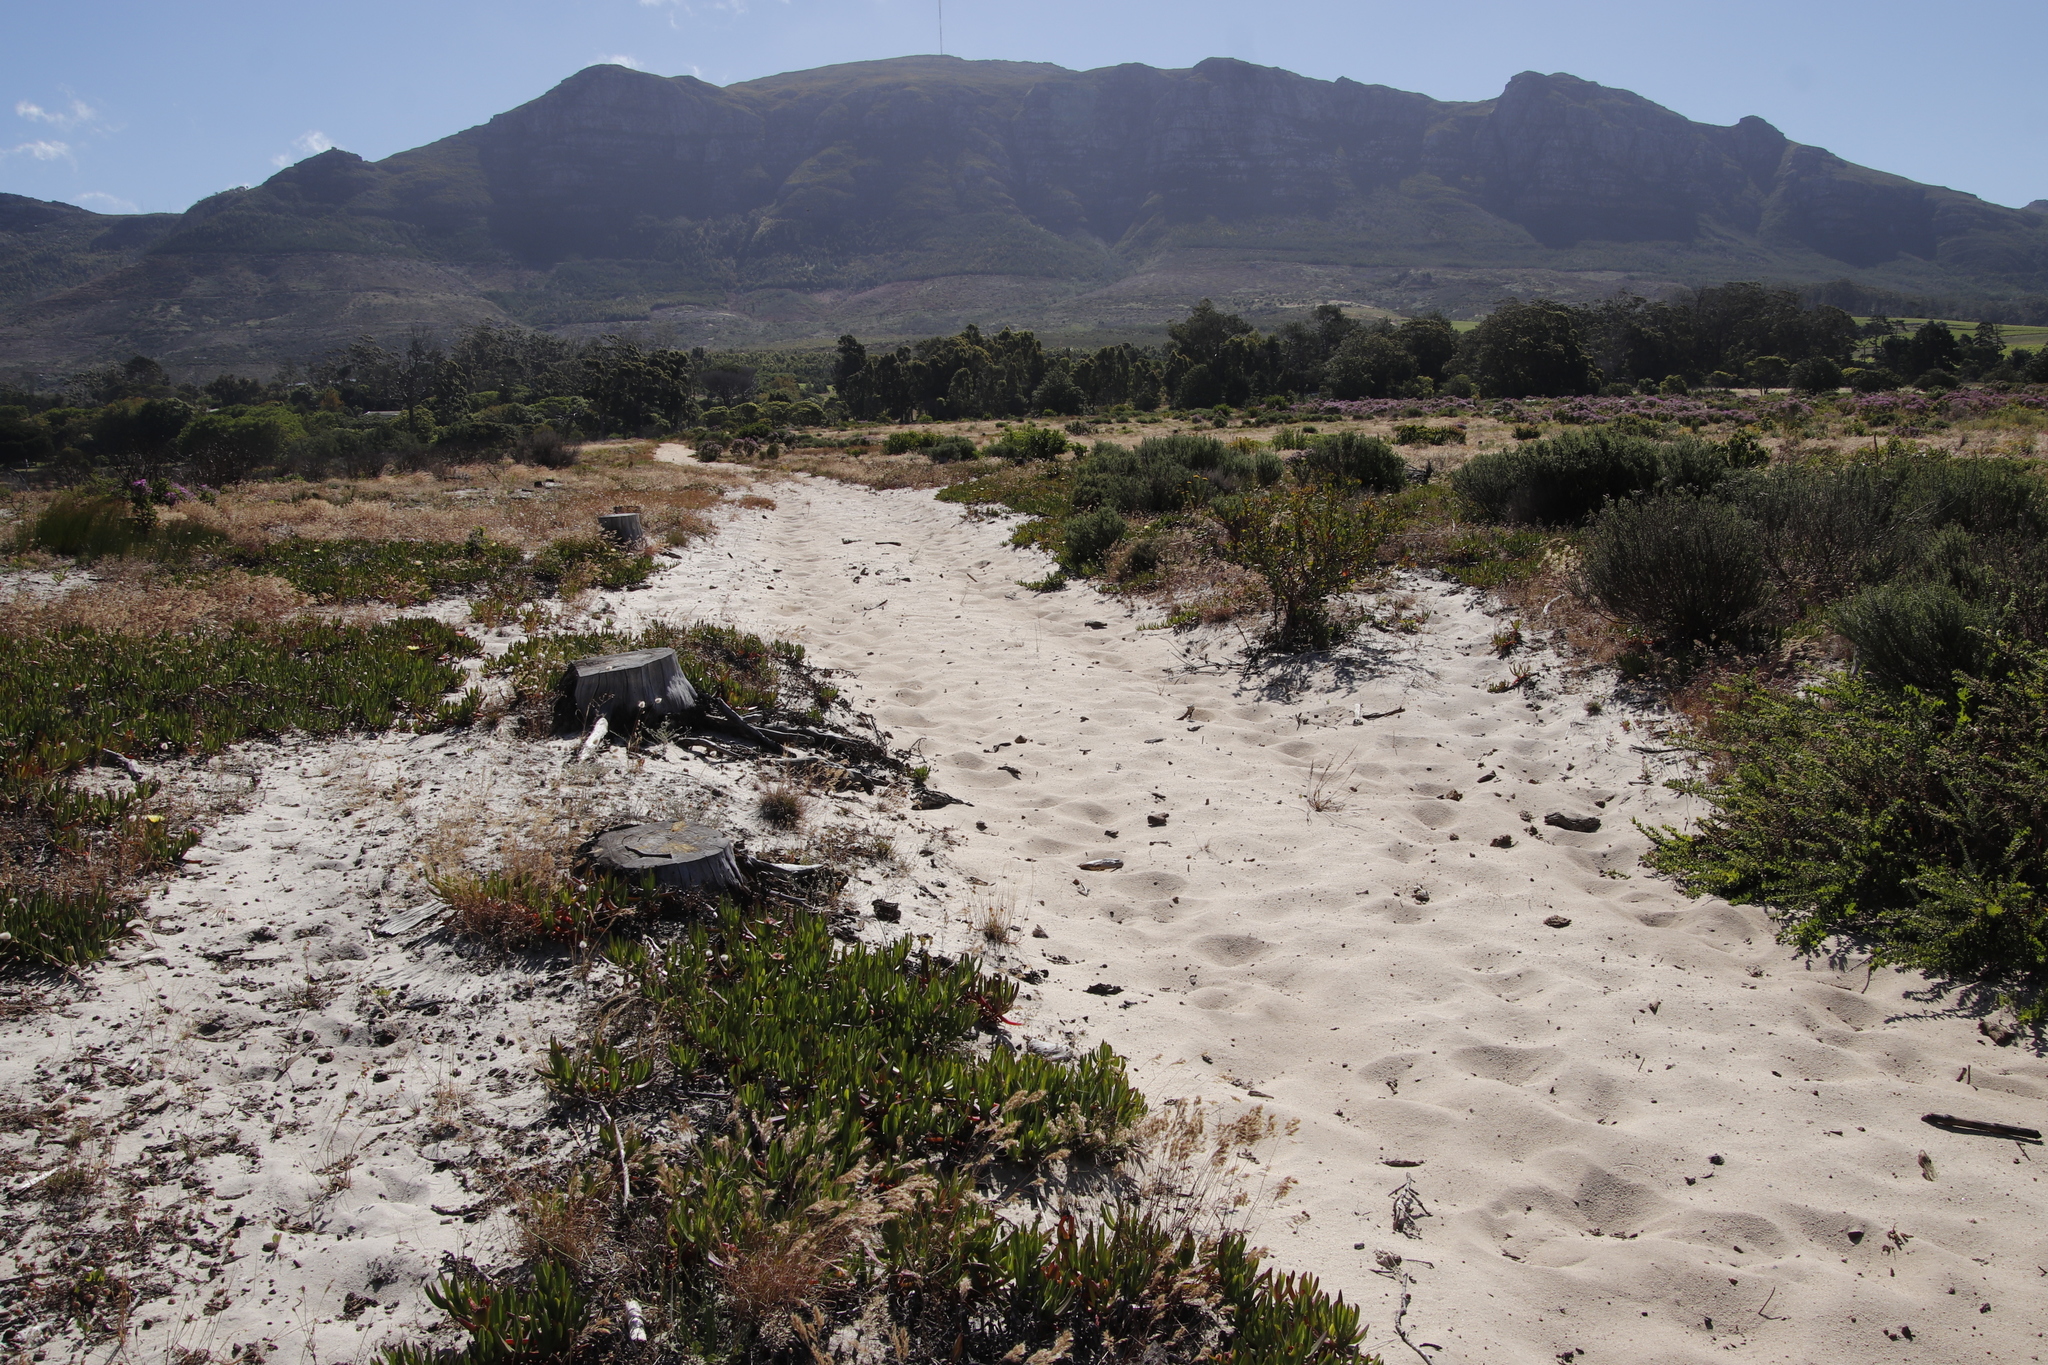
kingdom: Animalia
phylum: Chordata
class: Mammalia
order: Perissodactyla
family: Equidae
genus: Equus
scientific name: Equus caballus
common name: Horse
